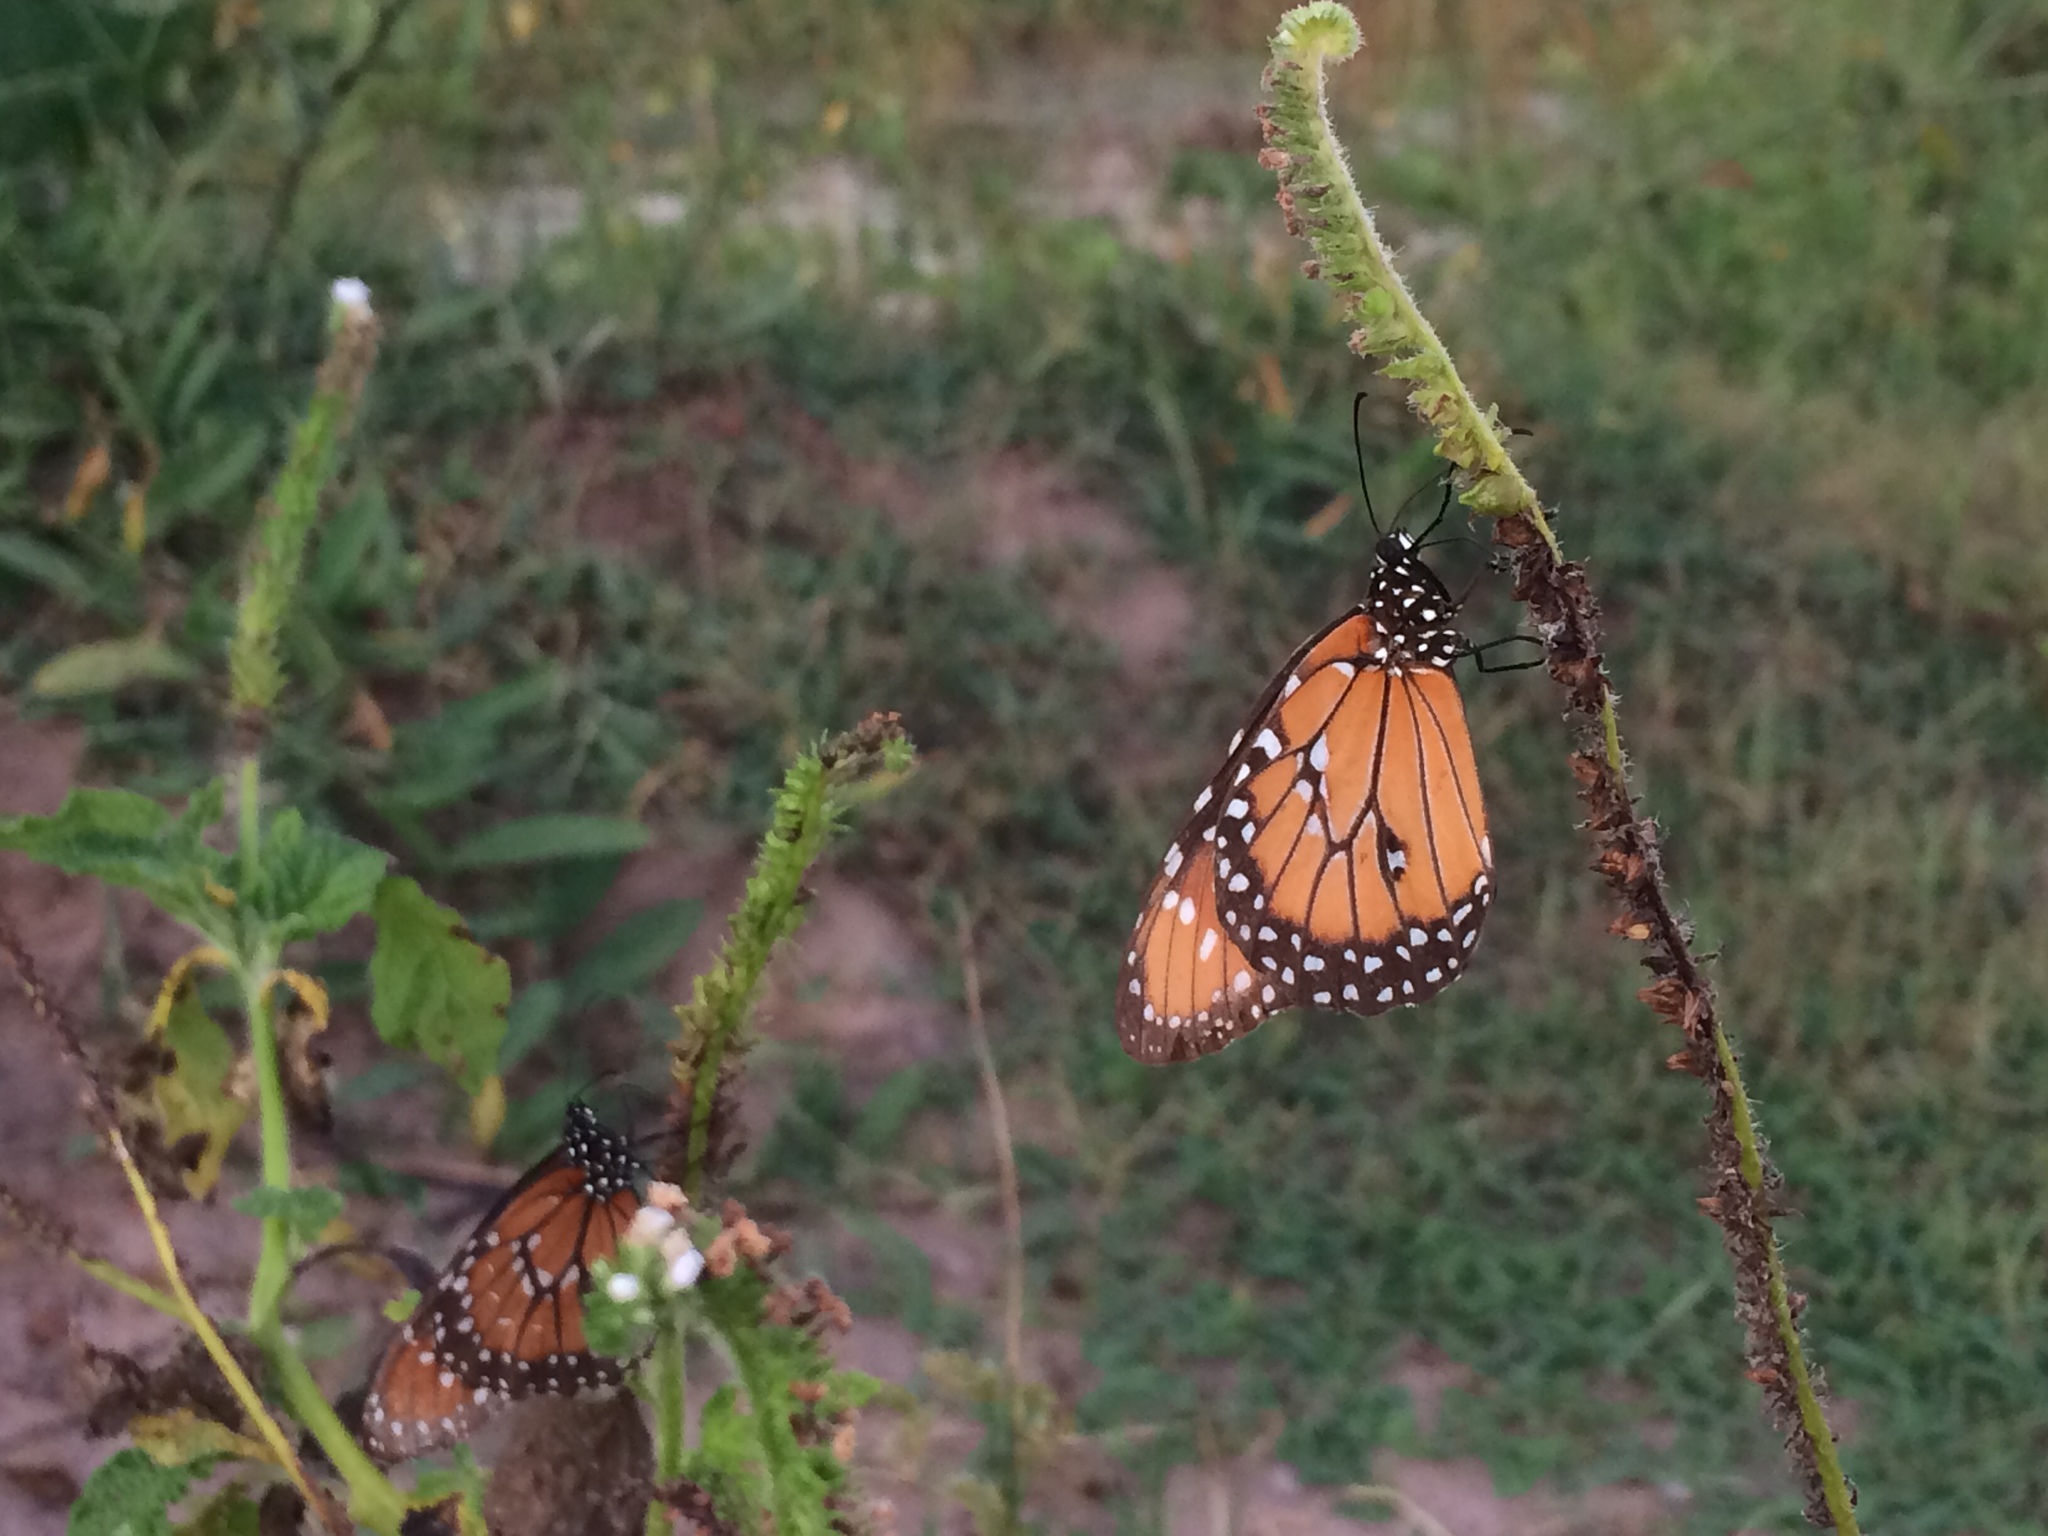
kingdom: Animalia
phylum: Arthropoda
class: Insecta
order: Lepidoptera
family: Nymphalidae
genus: Danaus
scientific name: Danaus gilippus
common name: Queen
